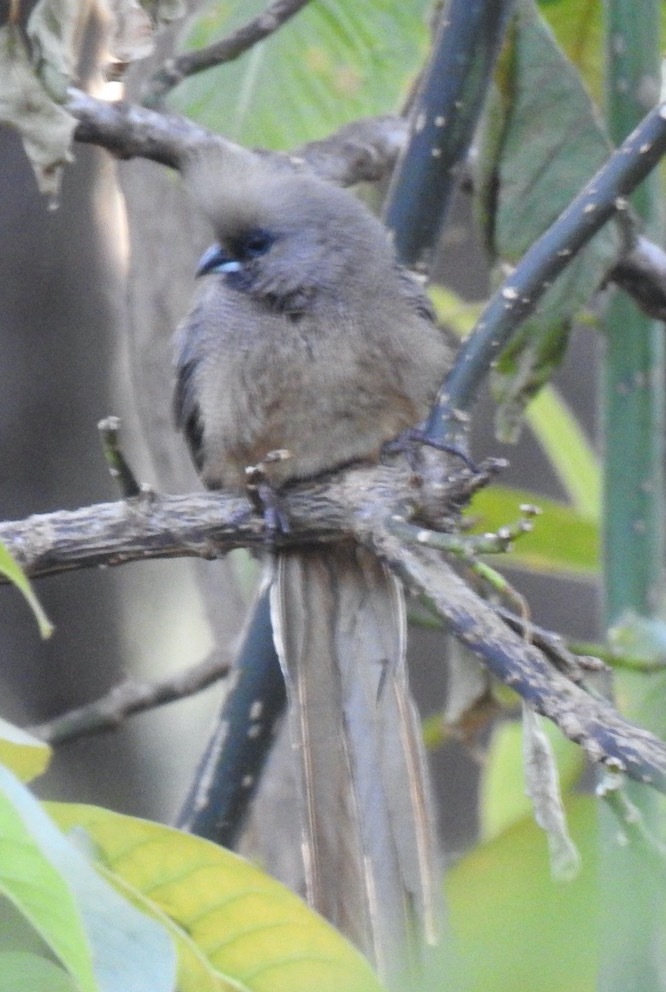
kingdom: Animalia
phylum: Chordata
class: Aves
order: Coliiformes
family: Coliidae
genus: Colius
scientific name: Colius striatus
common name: Speckled mousebird
